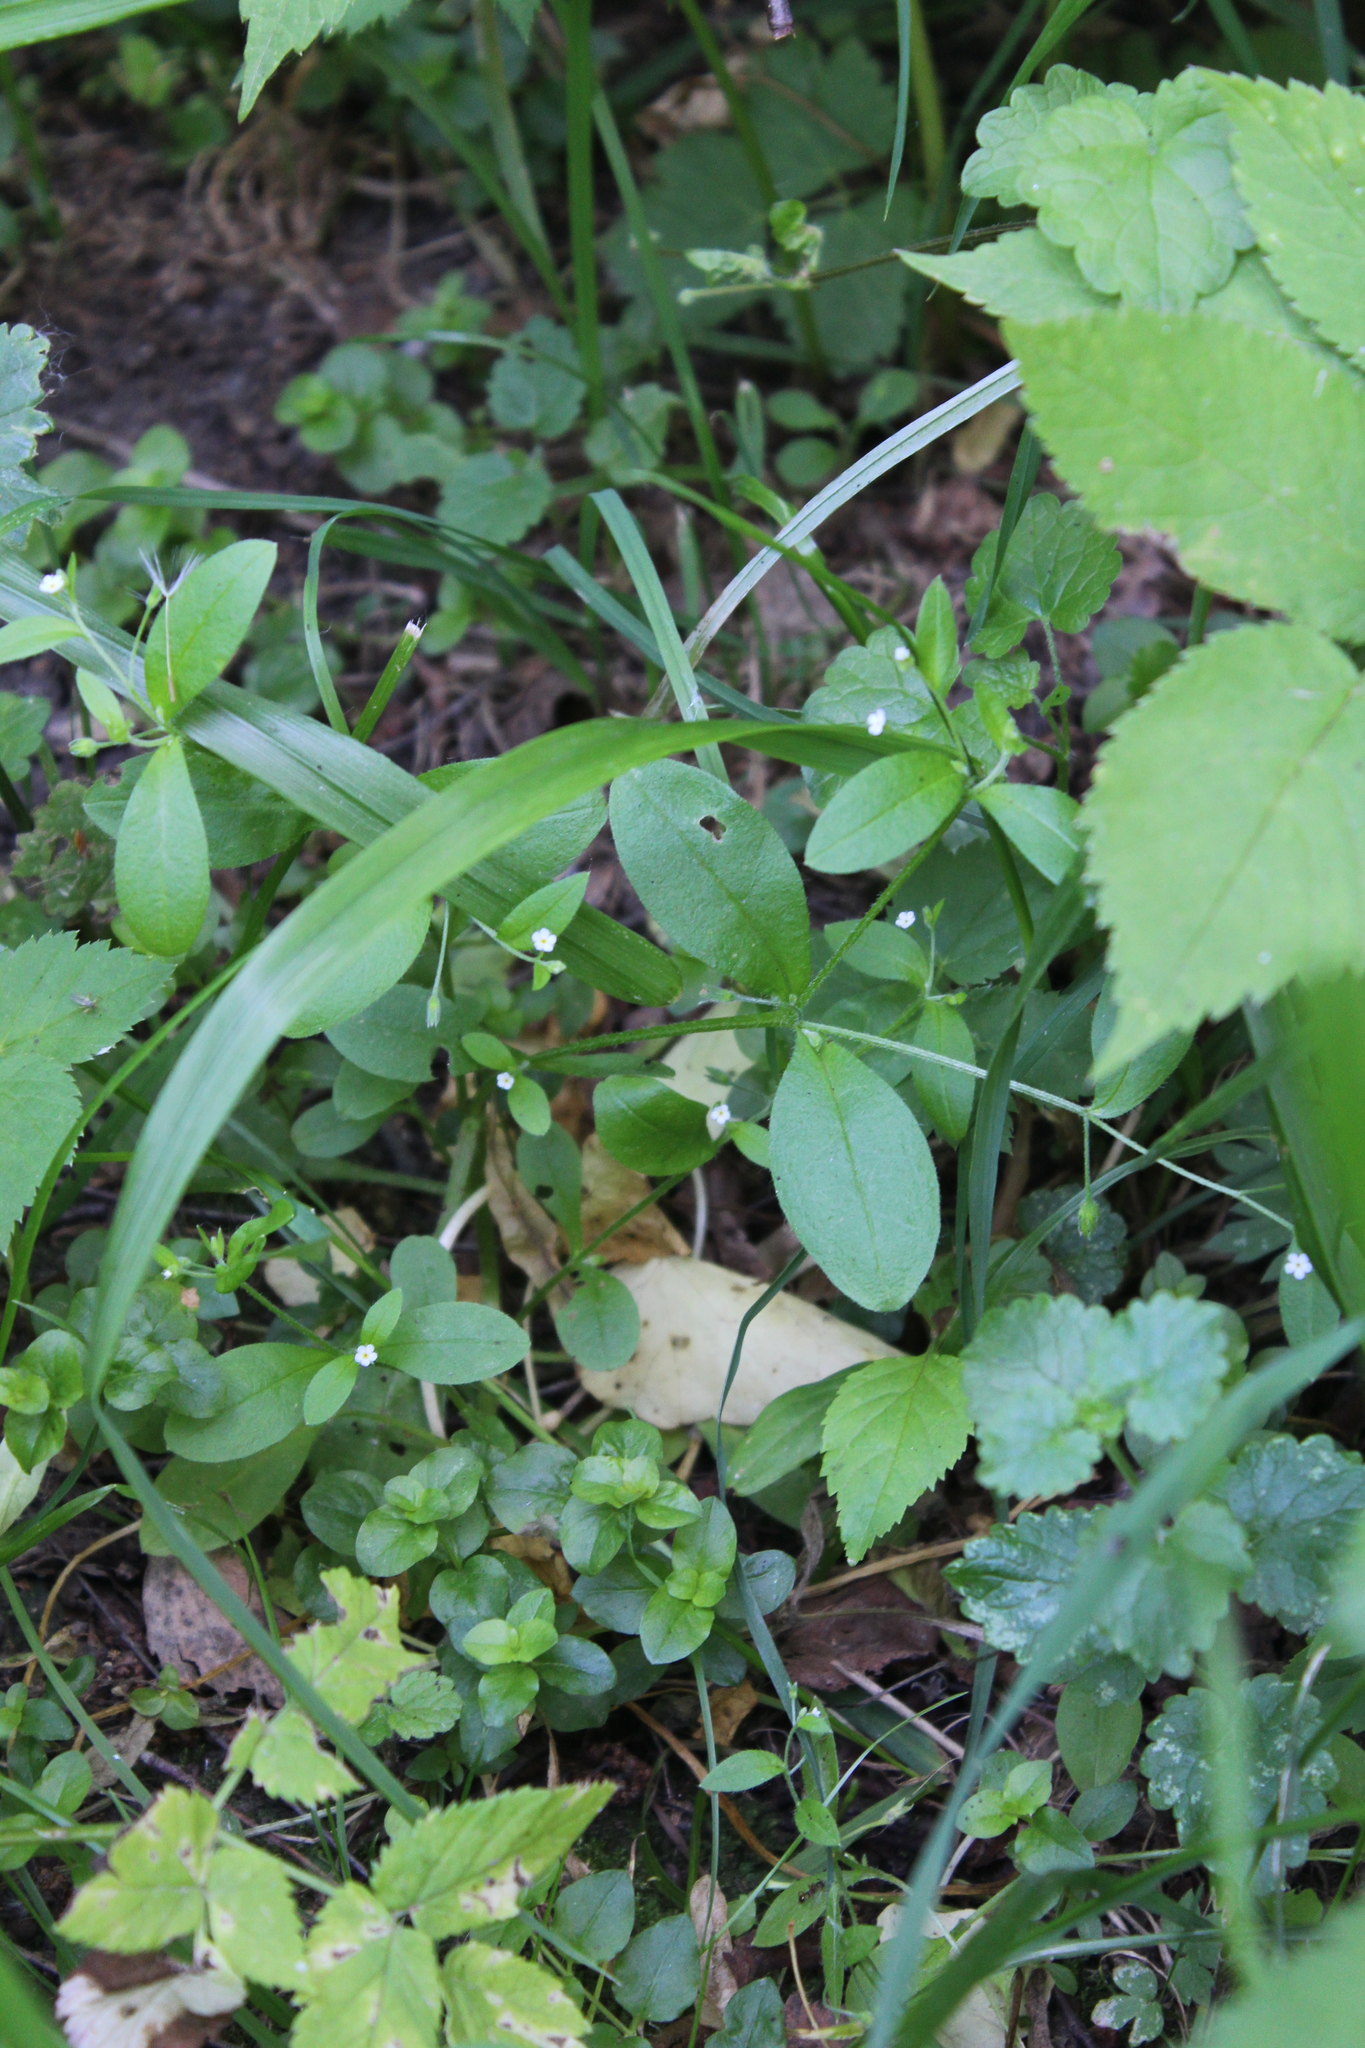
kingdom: Plantae
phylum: Tracheophyta
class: Magnoliopsida
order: Boraginales
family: Boraginaceae
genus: Myosotis
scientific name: Myosotis sparsiflora
